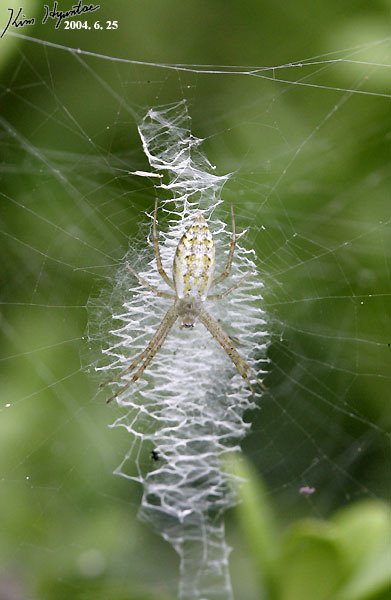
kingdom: Animalia
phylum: Arthropoda
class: Arachnida
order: Araneae
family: Araneidae
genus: Argiope
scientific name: Argiope bruennichi
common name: Wasp spider
